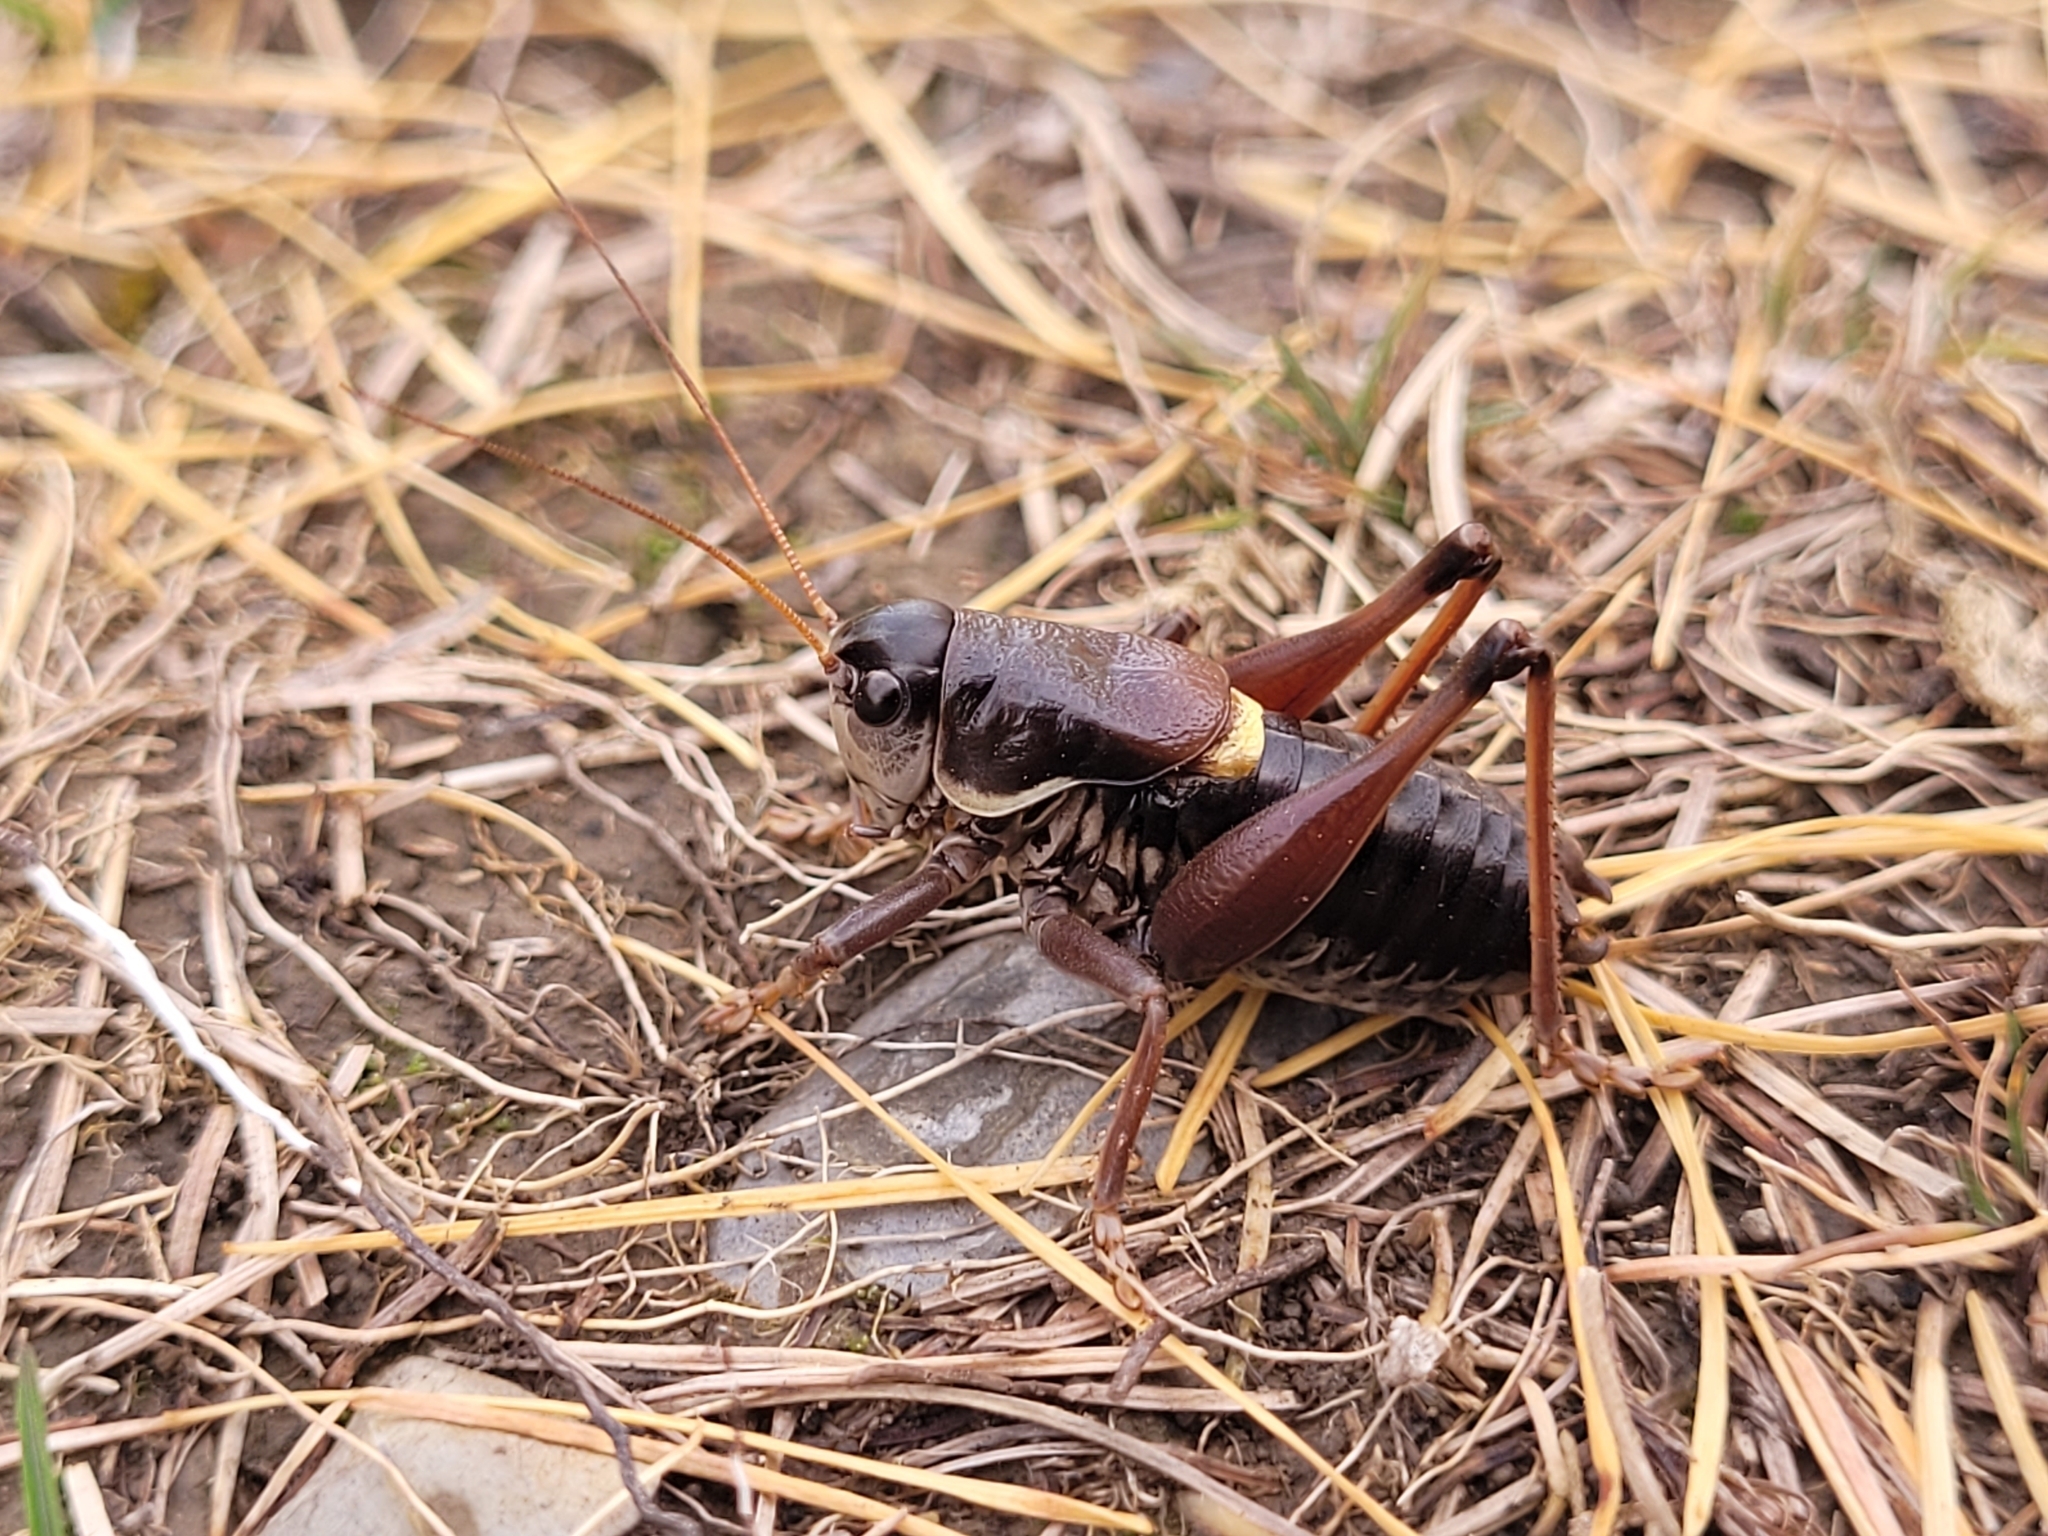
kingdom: Animalia
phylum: Arthropoda
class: Insecta
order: Orthoptera
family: Tettigoniidae
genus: Anonconotus
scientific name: Anonconotus ghilianii
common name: Ghiliani's alpine bush-cricket
